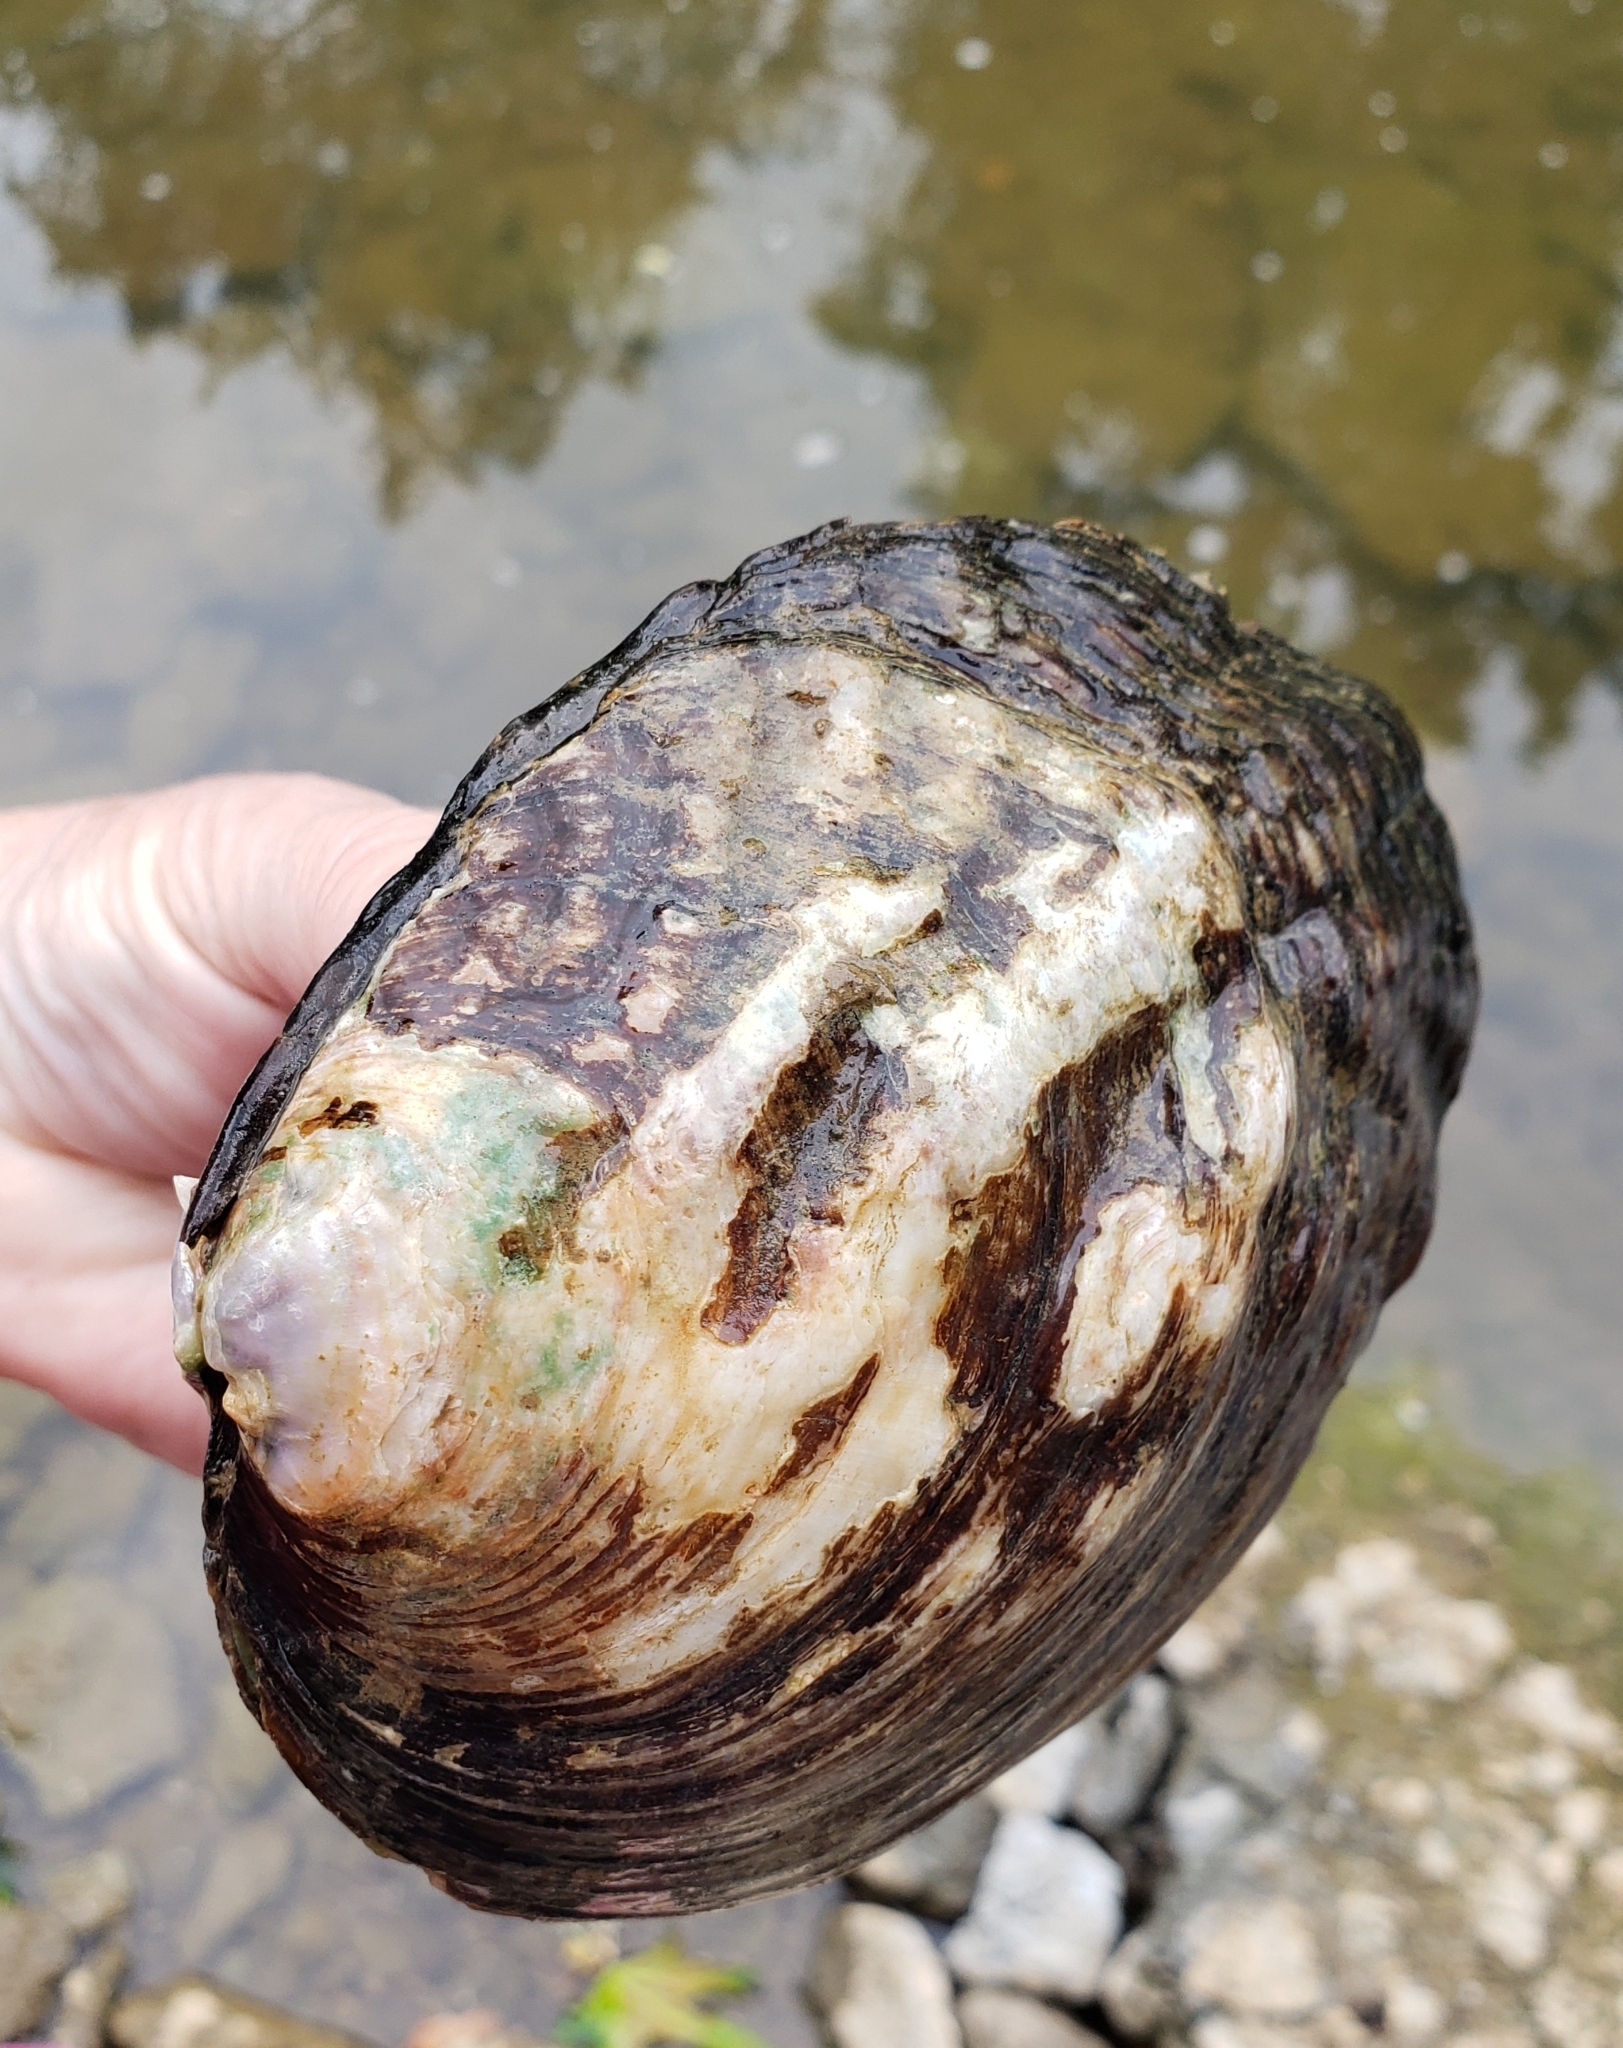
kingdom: Animalia
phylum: Mollusca
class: Bivalvia
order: Unionida
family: Unionidae
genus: Amblema
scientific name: Amblema plicata
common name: Threeridge
